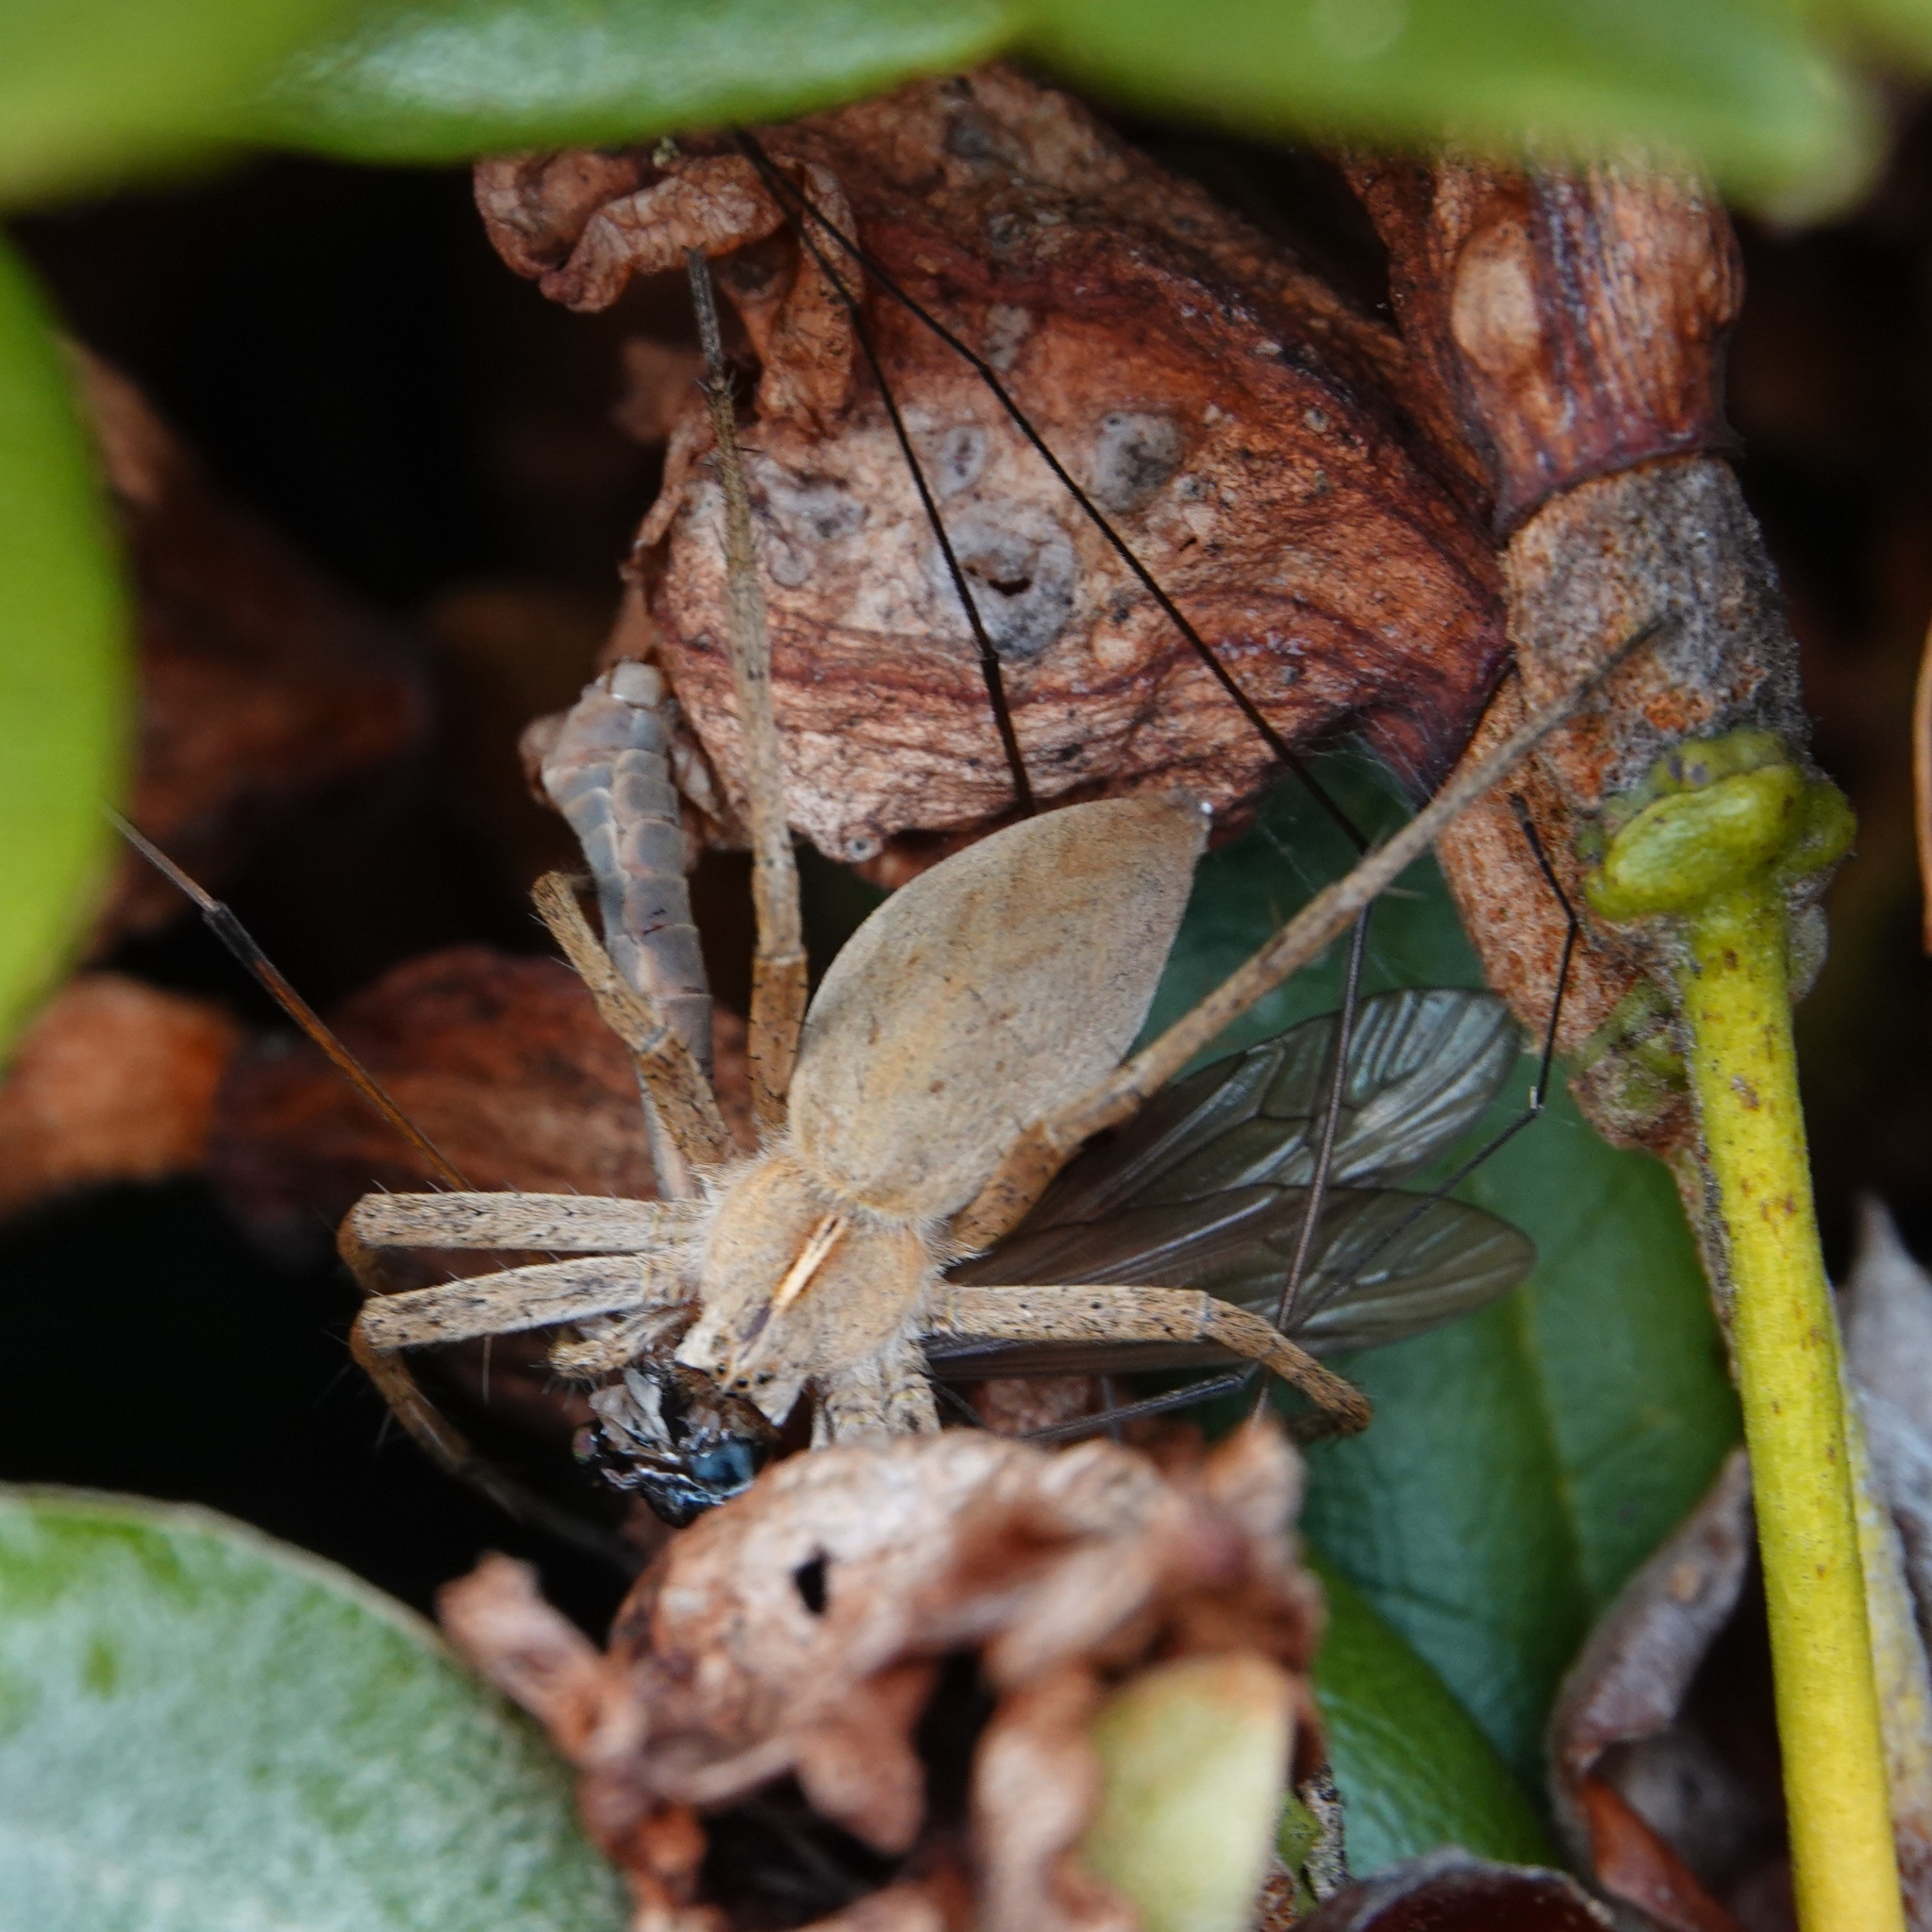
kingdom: Animalia
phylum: Arthropoda
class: Arachnida
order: Araneae
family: Pisauridae
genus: Pisaura
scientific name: Pisaura mirabilis
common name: Tent spider
